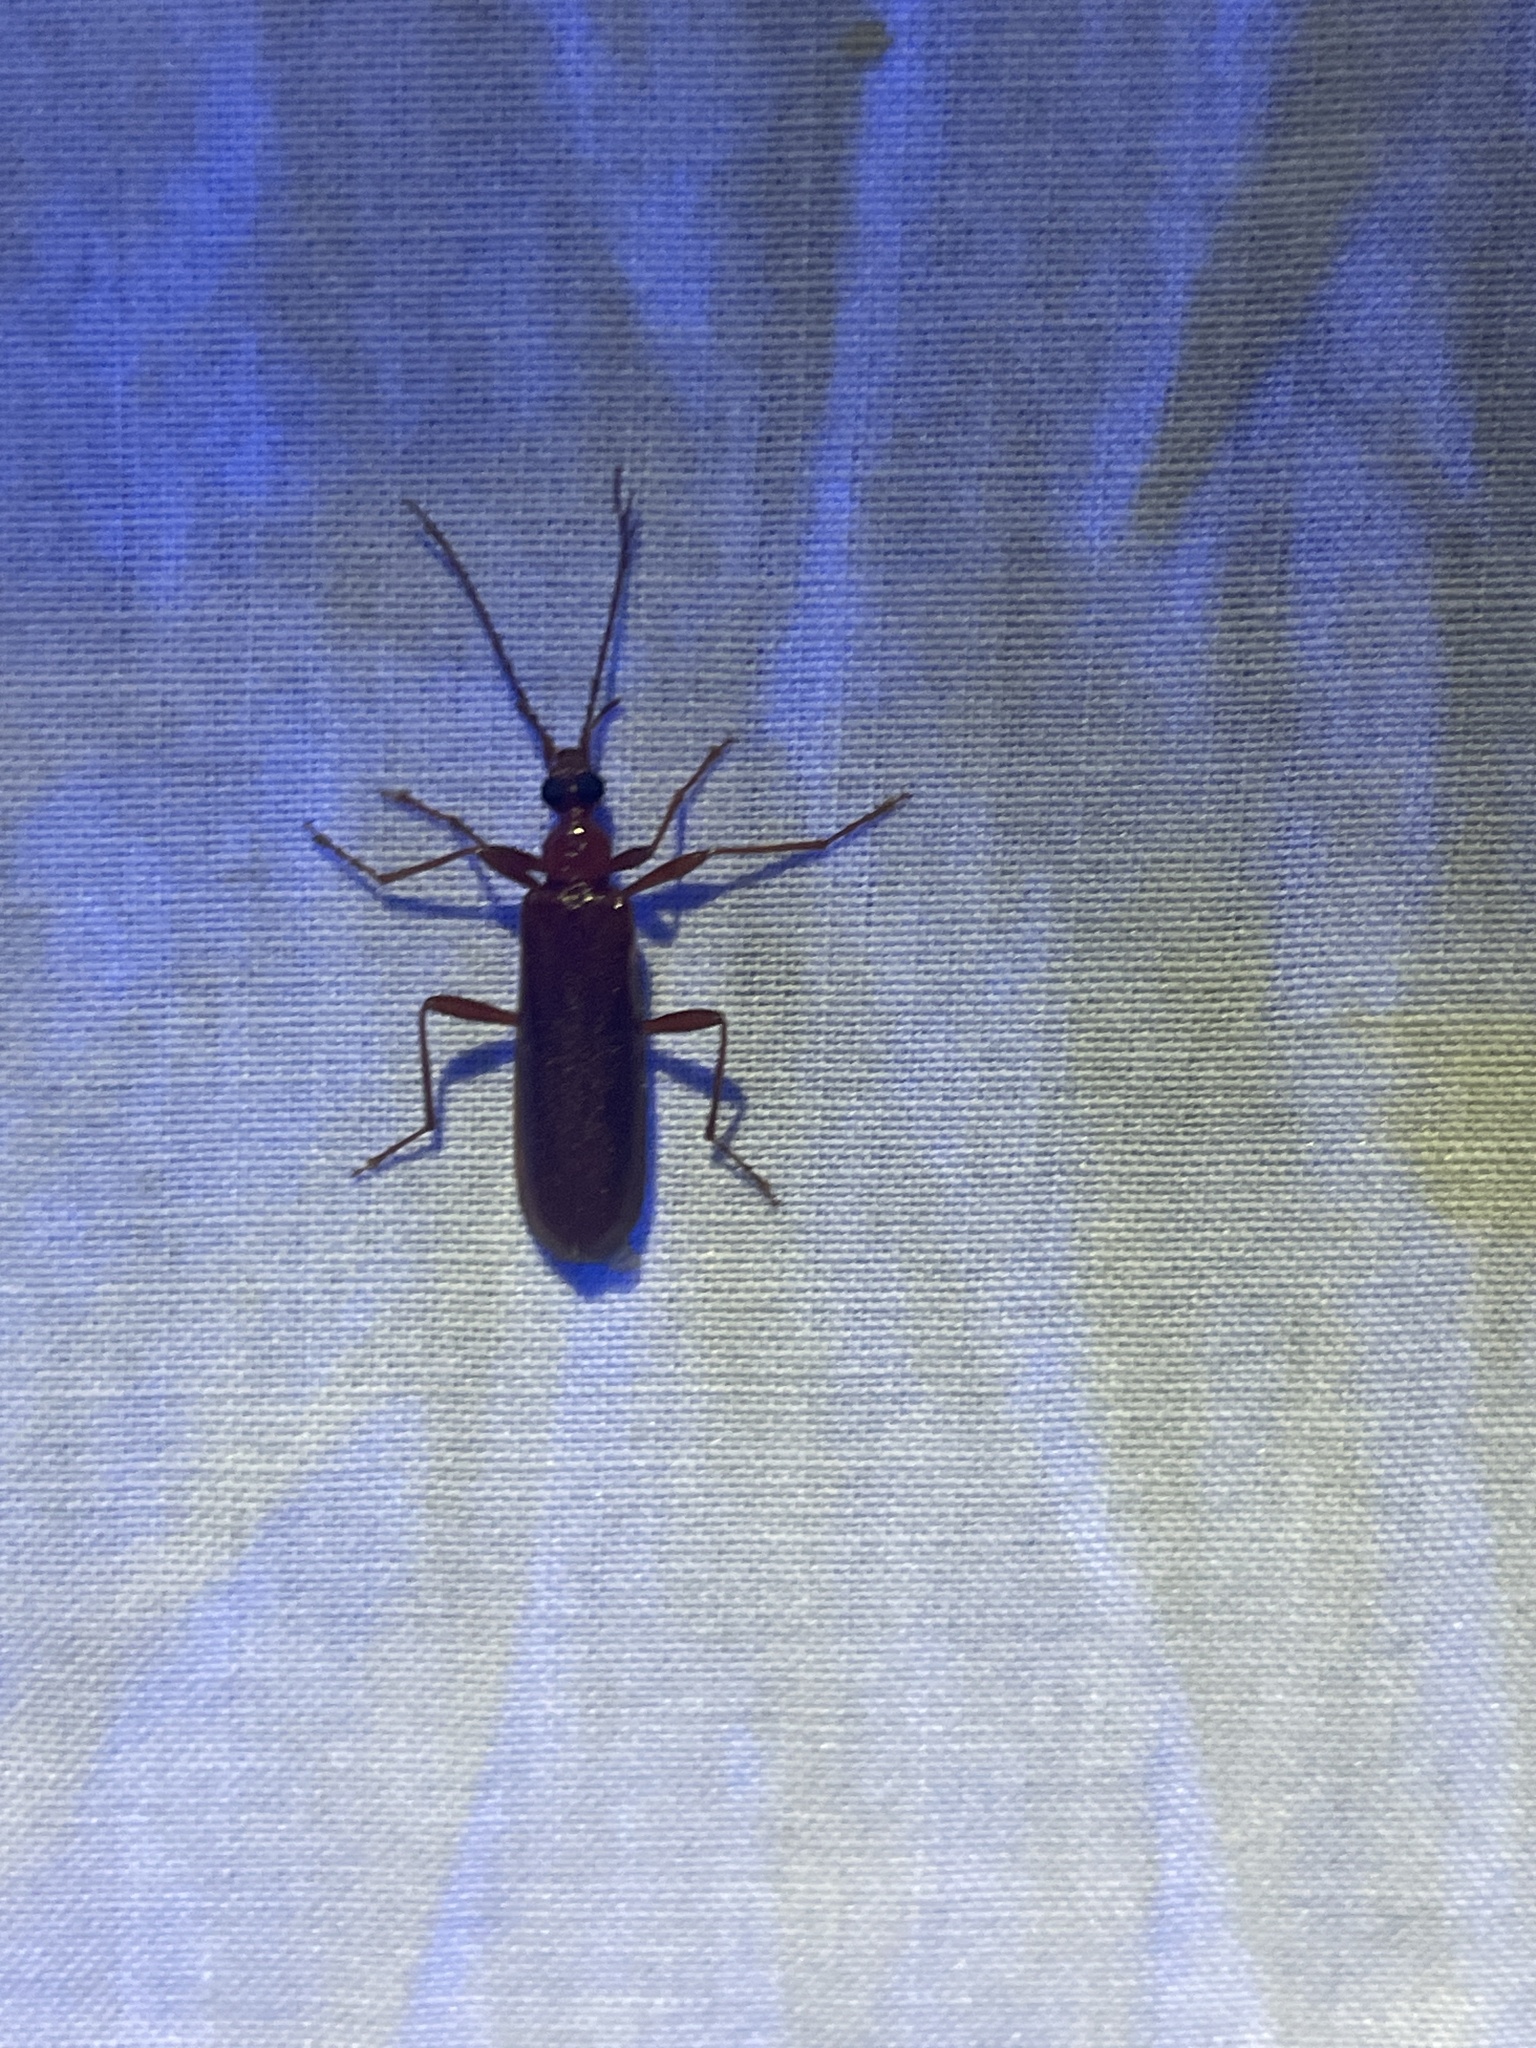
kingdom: Animalia
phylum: Arthropoda
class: Insecta
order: Coleoptera
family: Pyrochroidae
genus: Dendroides
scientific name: Dendroides concolor
